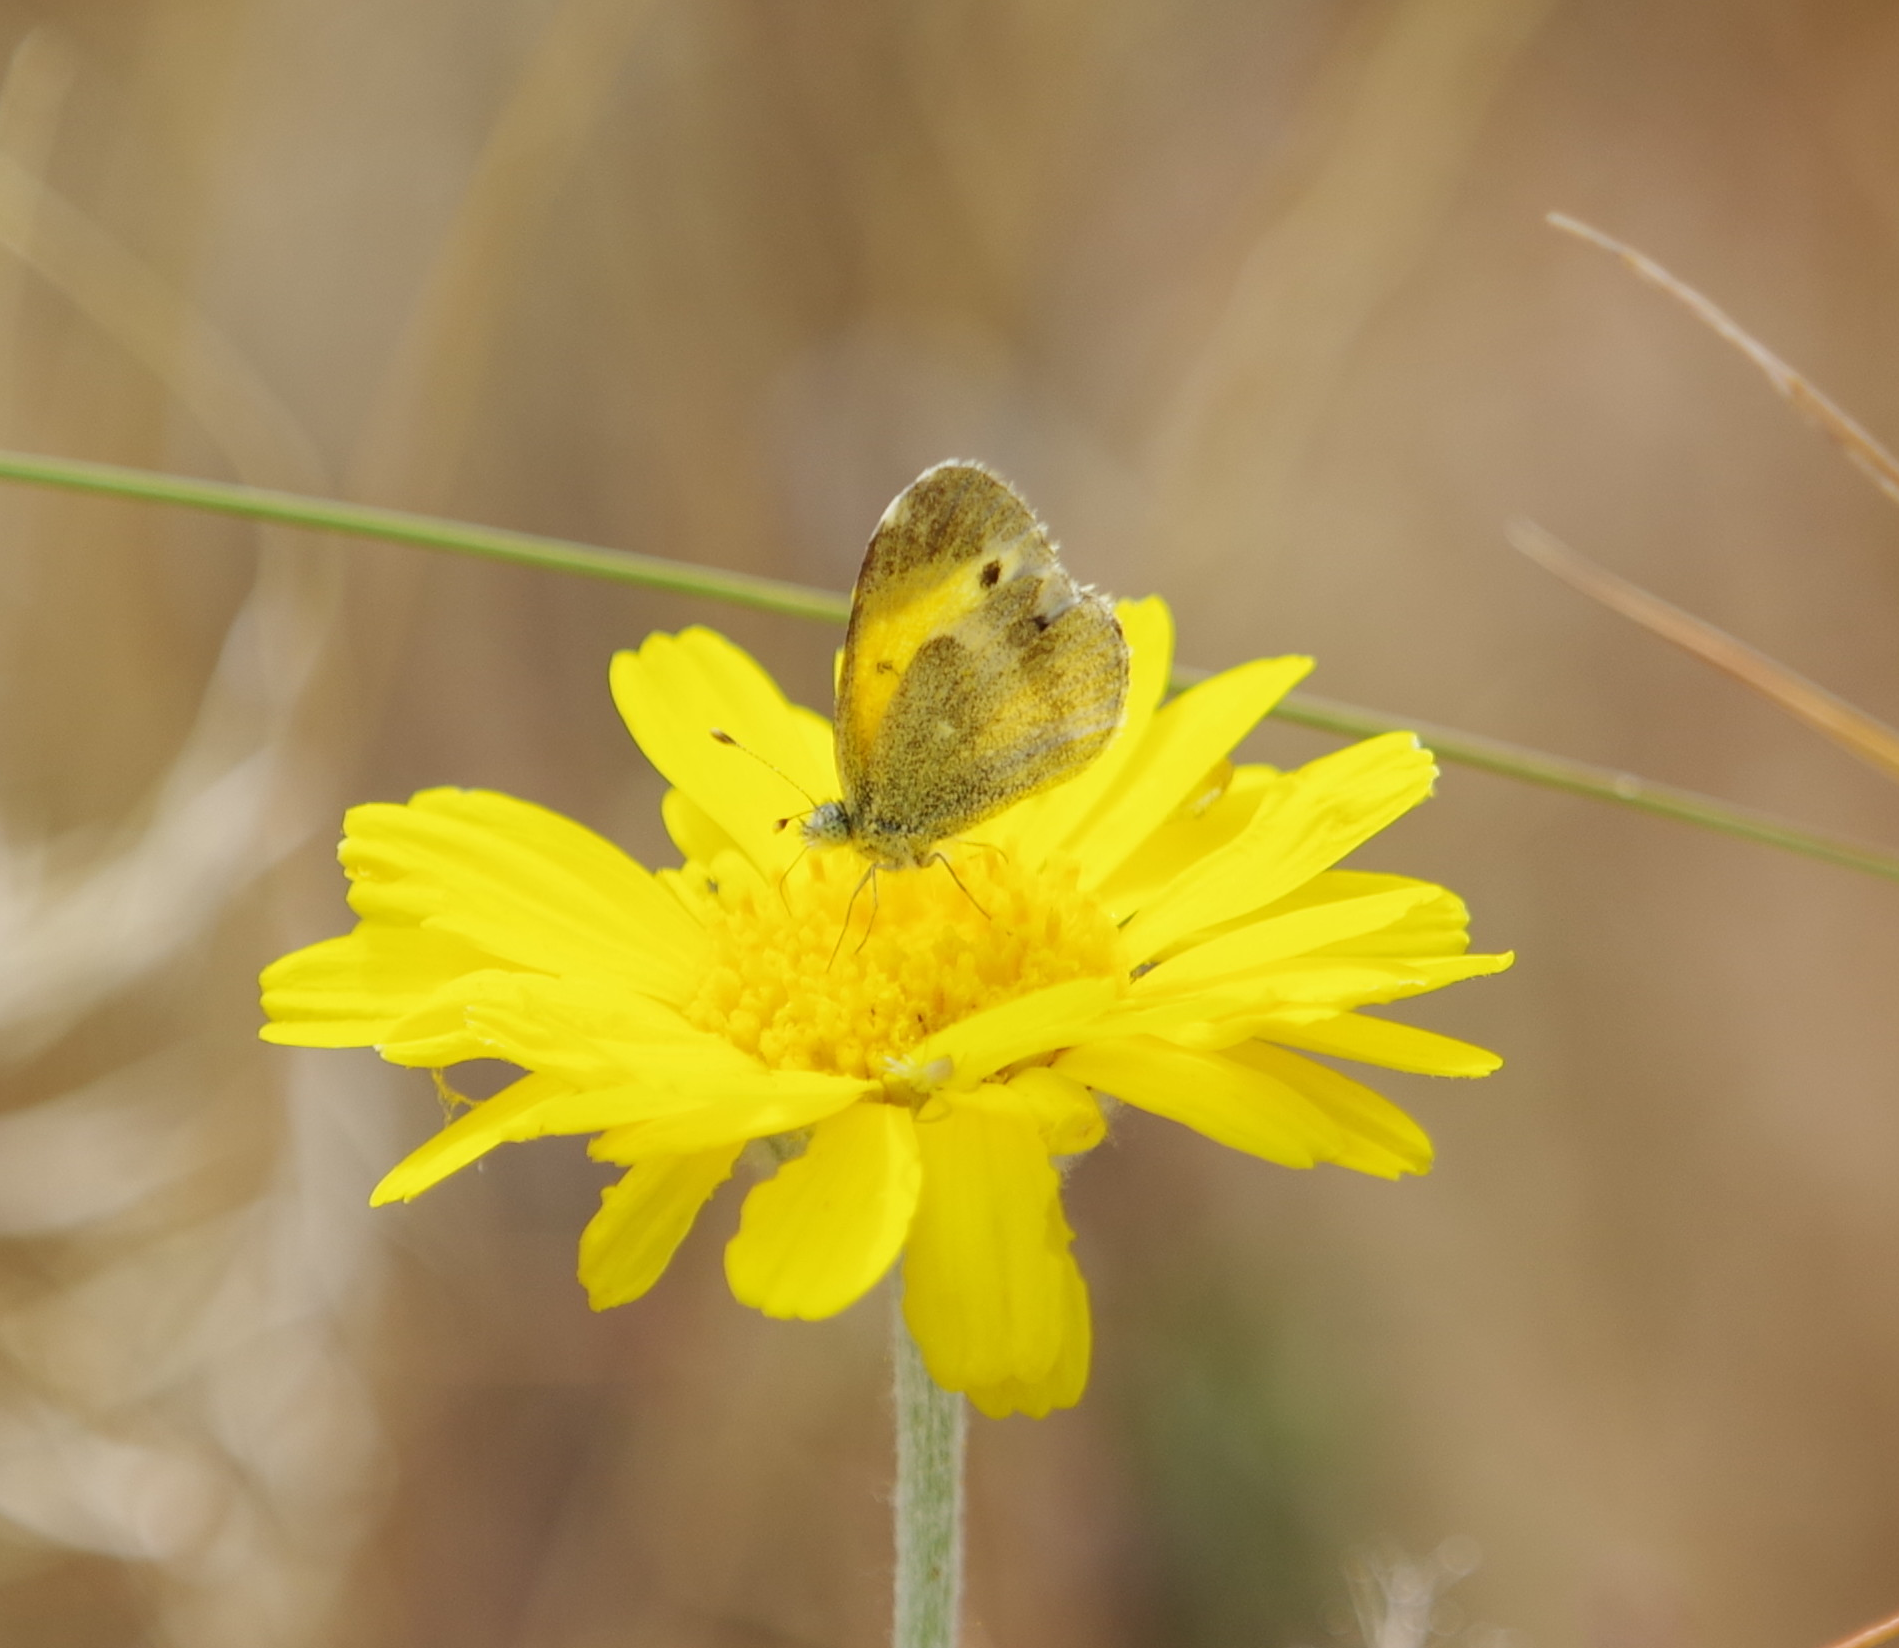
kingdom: Animalia
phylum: Arthropoda
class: Insecta
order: Lepidoptera
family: Pieridae
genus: Nathalis
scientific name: Nathalis iole
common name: Dainty sulphur
